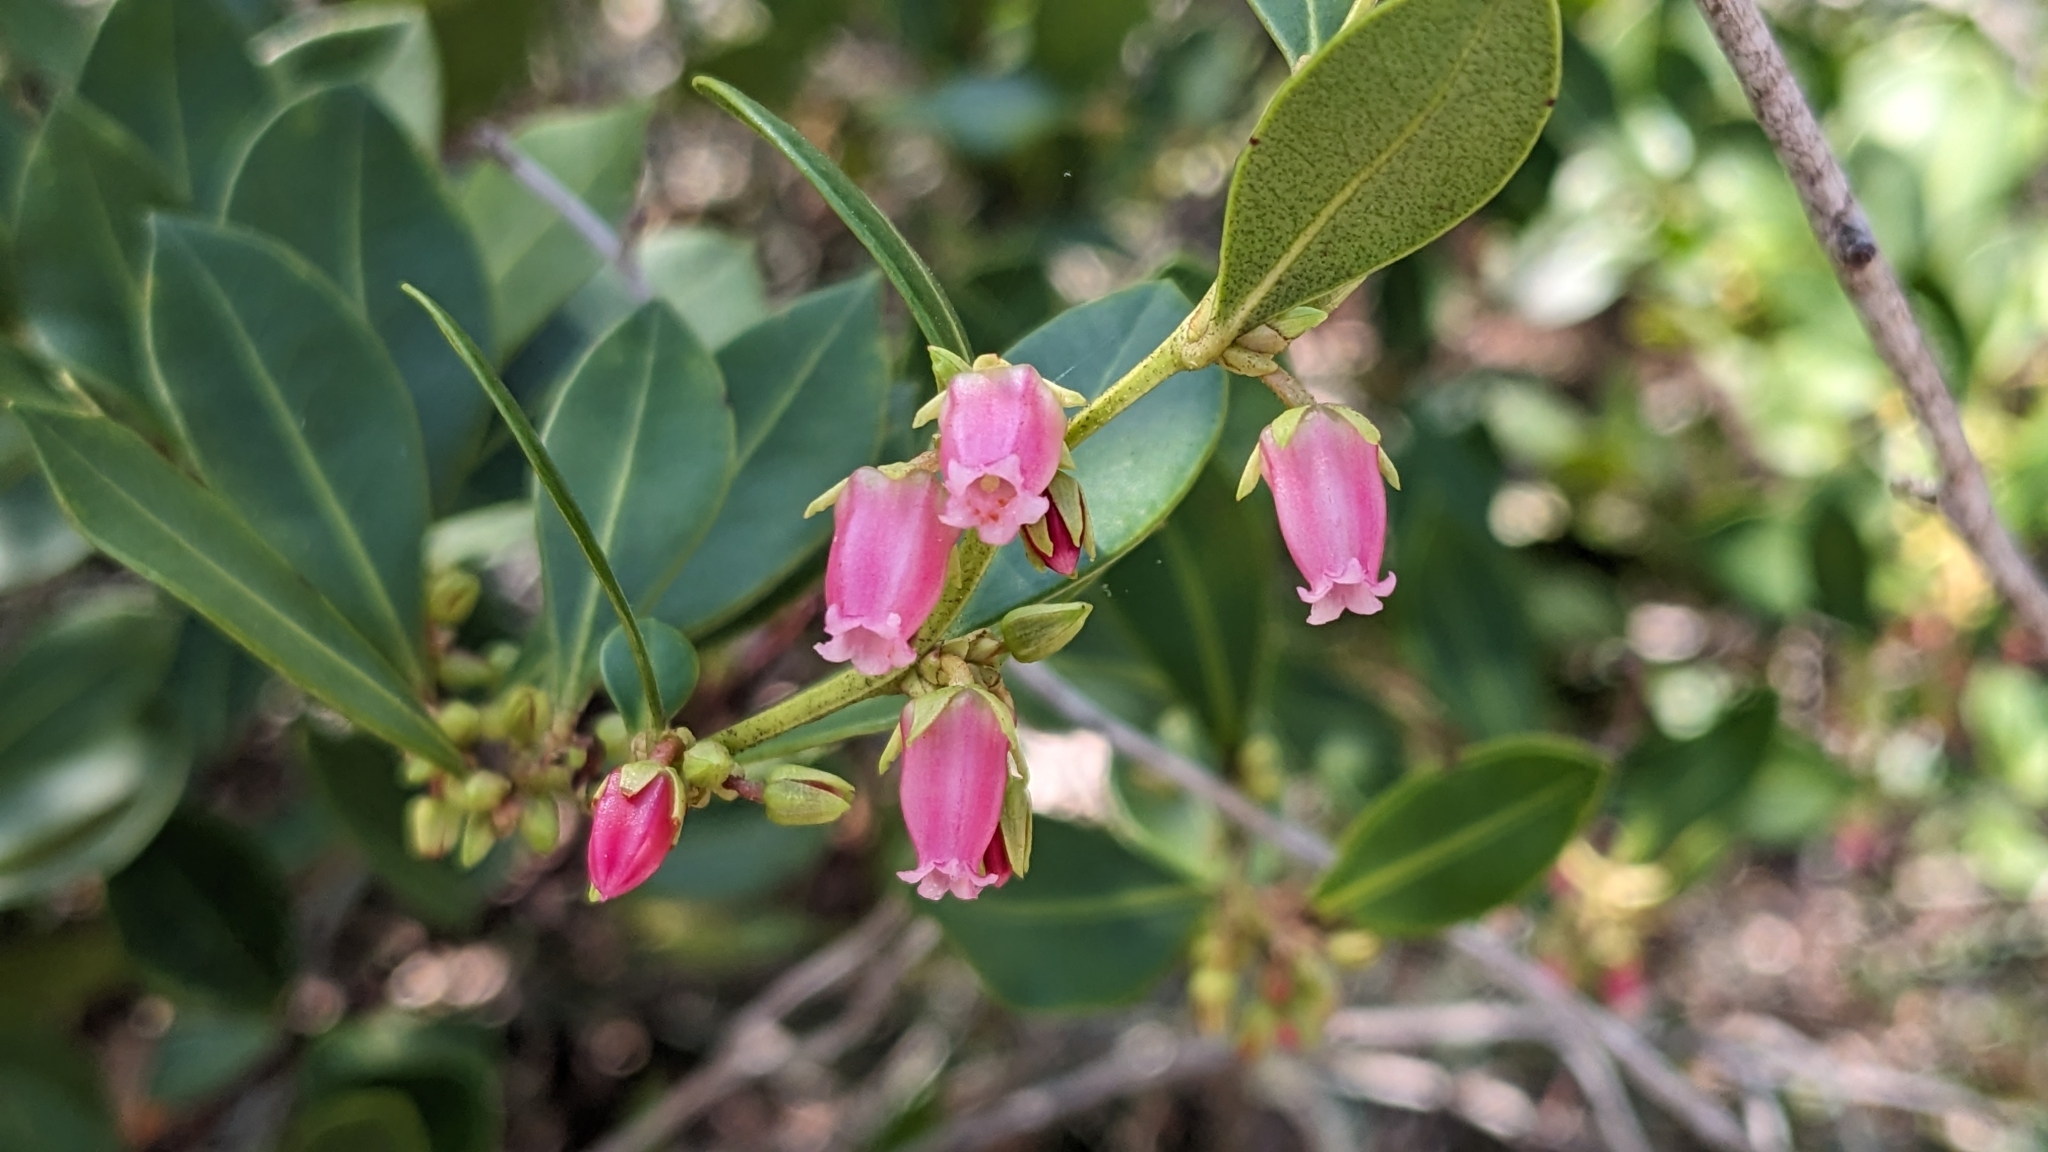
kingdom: Plantae
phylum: Tracheophyta
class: Magnoliopsida
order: Ericales
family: Ericaceae
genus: Lyonia
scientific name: Lyonia lucida
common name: Fetterbush
